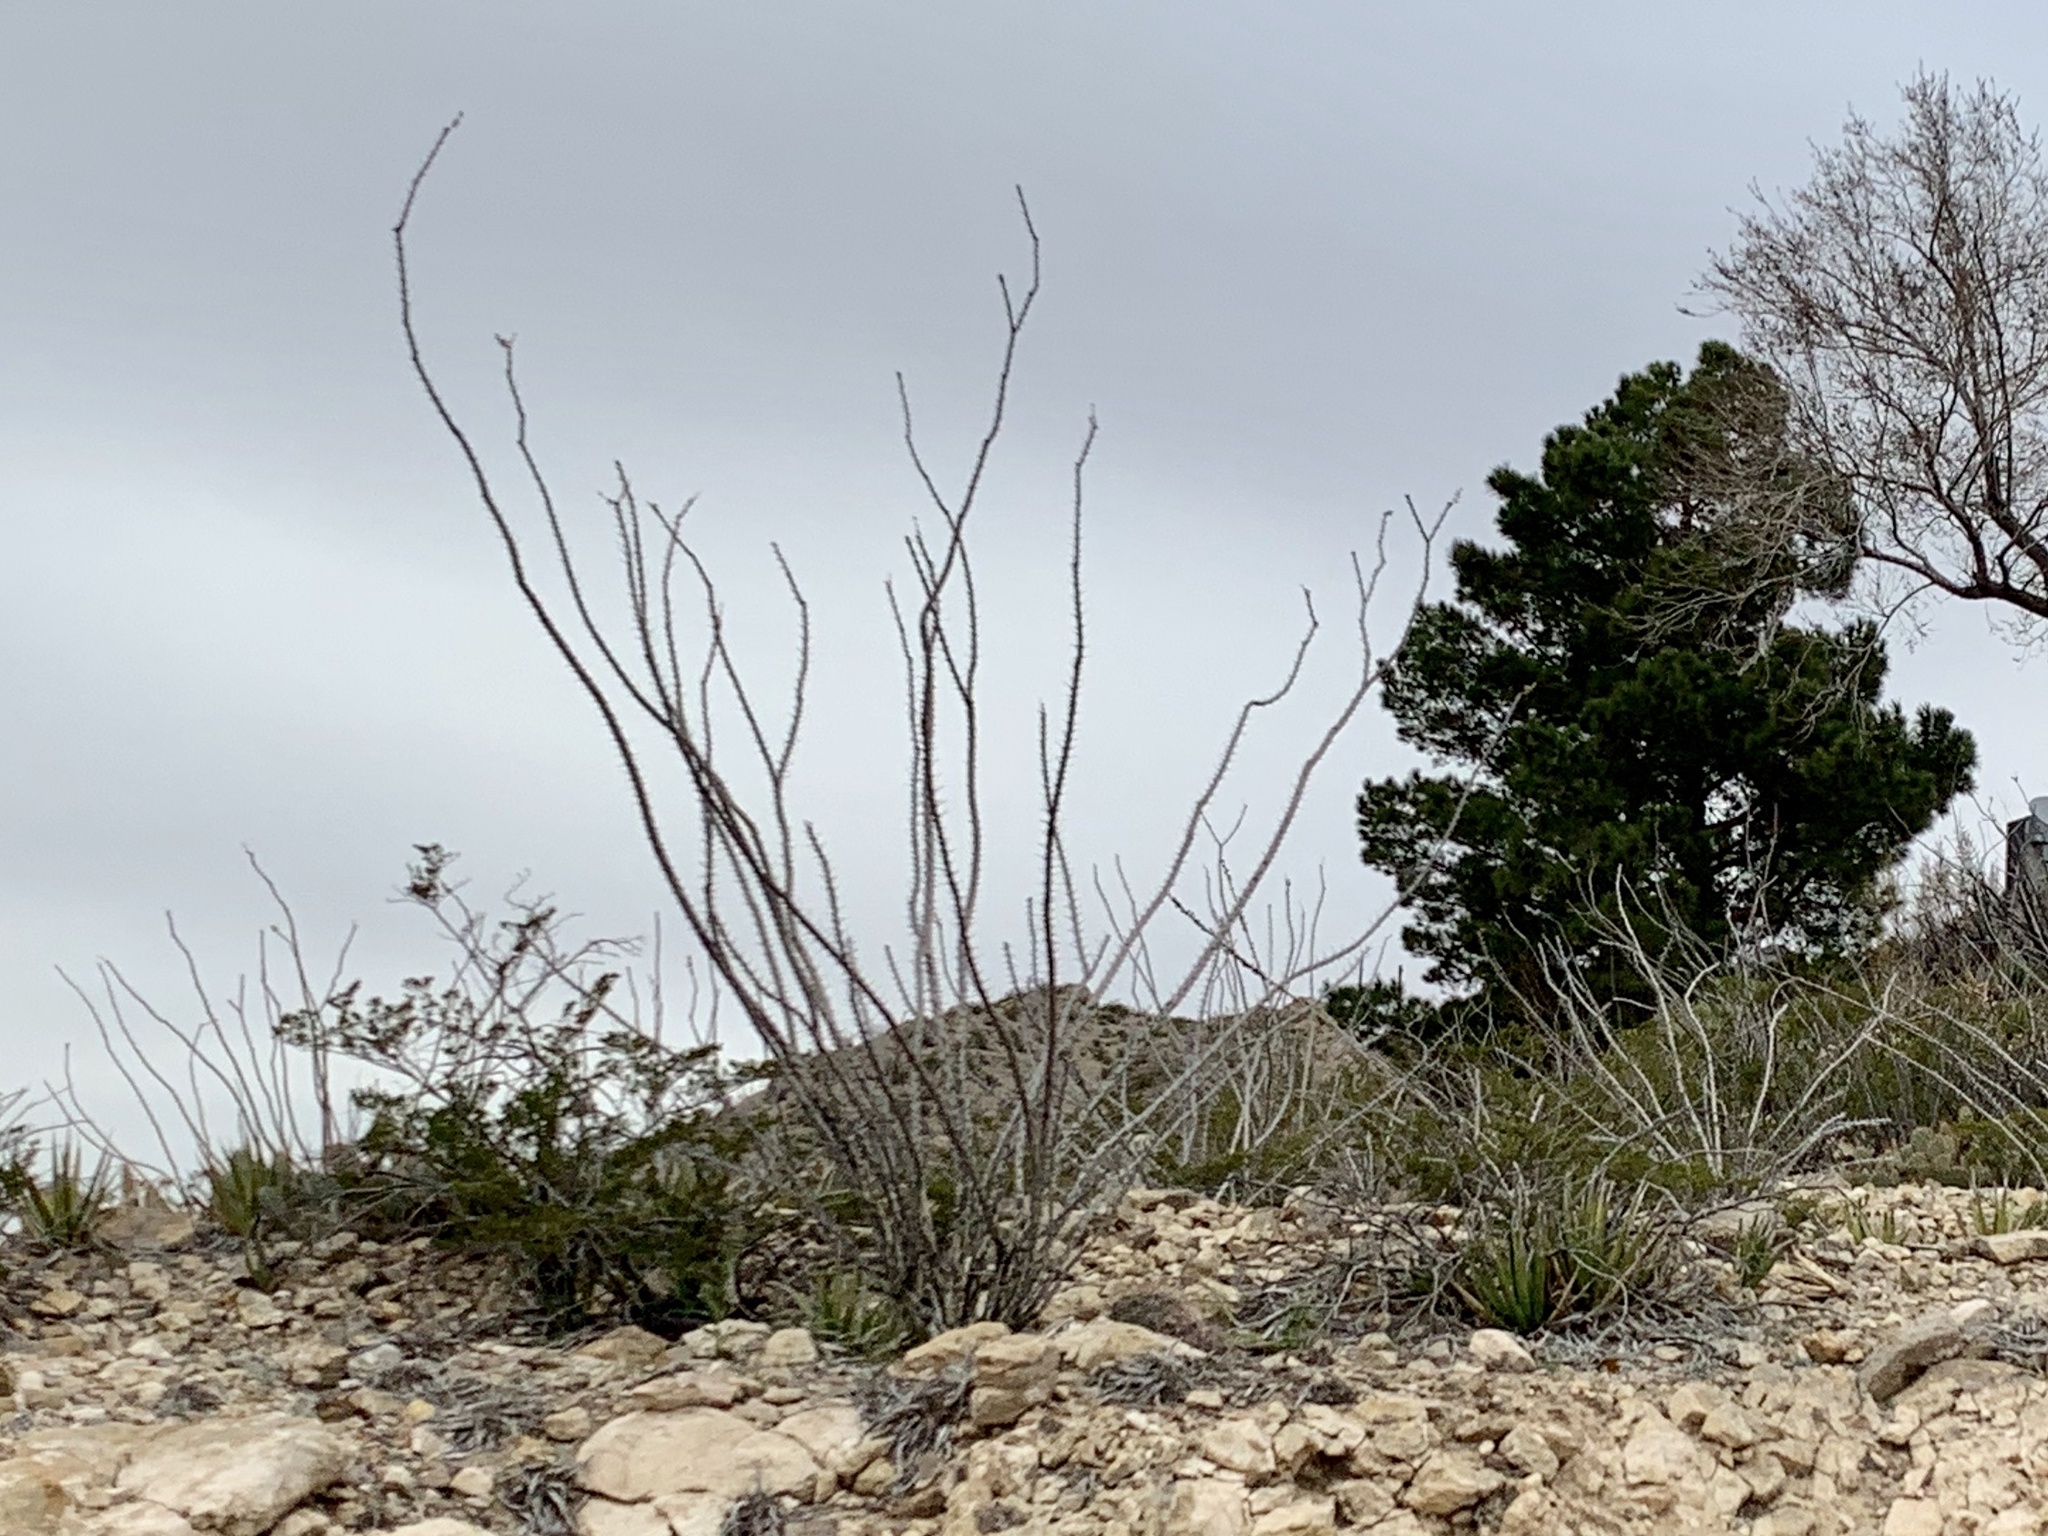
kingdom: Plantae
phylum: Tracheophyta
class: Magnoliopsida
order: Ericales
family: Fouquieriaceae
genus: Fouquieria
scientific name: Fouquieria splendens
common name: Vine-cactus
